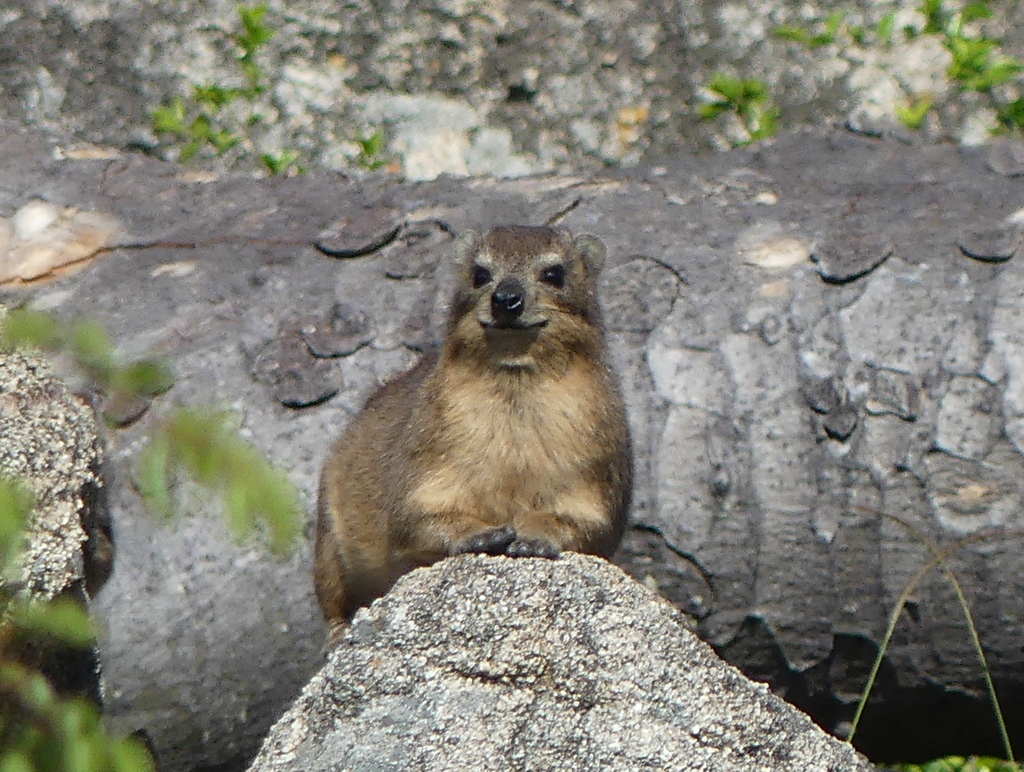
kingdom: Animalia
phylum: Chordata
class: Mammalia
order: Hyracoidea
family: Procaviidae
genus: Procavia
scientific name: Procavia capensis
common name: Rock hyrax
